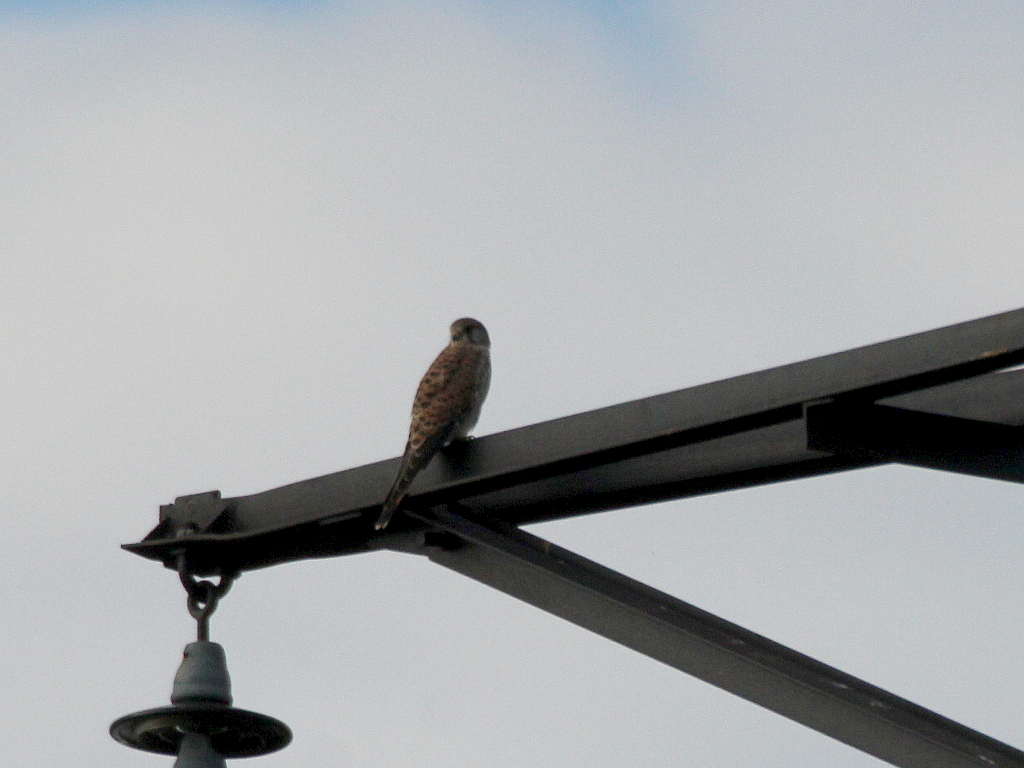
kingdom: Animalia
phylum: Chordata
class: Aves
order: Falconiformes
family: Falconidae
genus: Falco
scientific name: Falco tinnunculus
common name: Common kestrel
